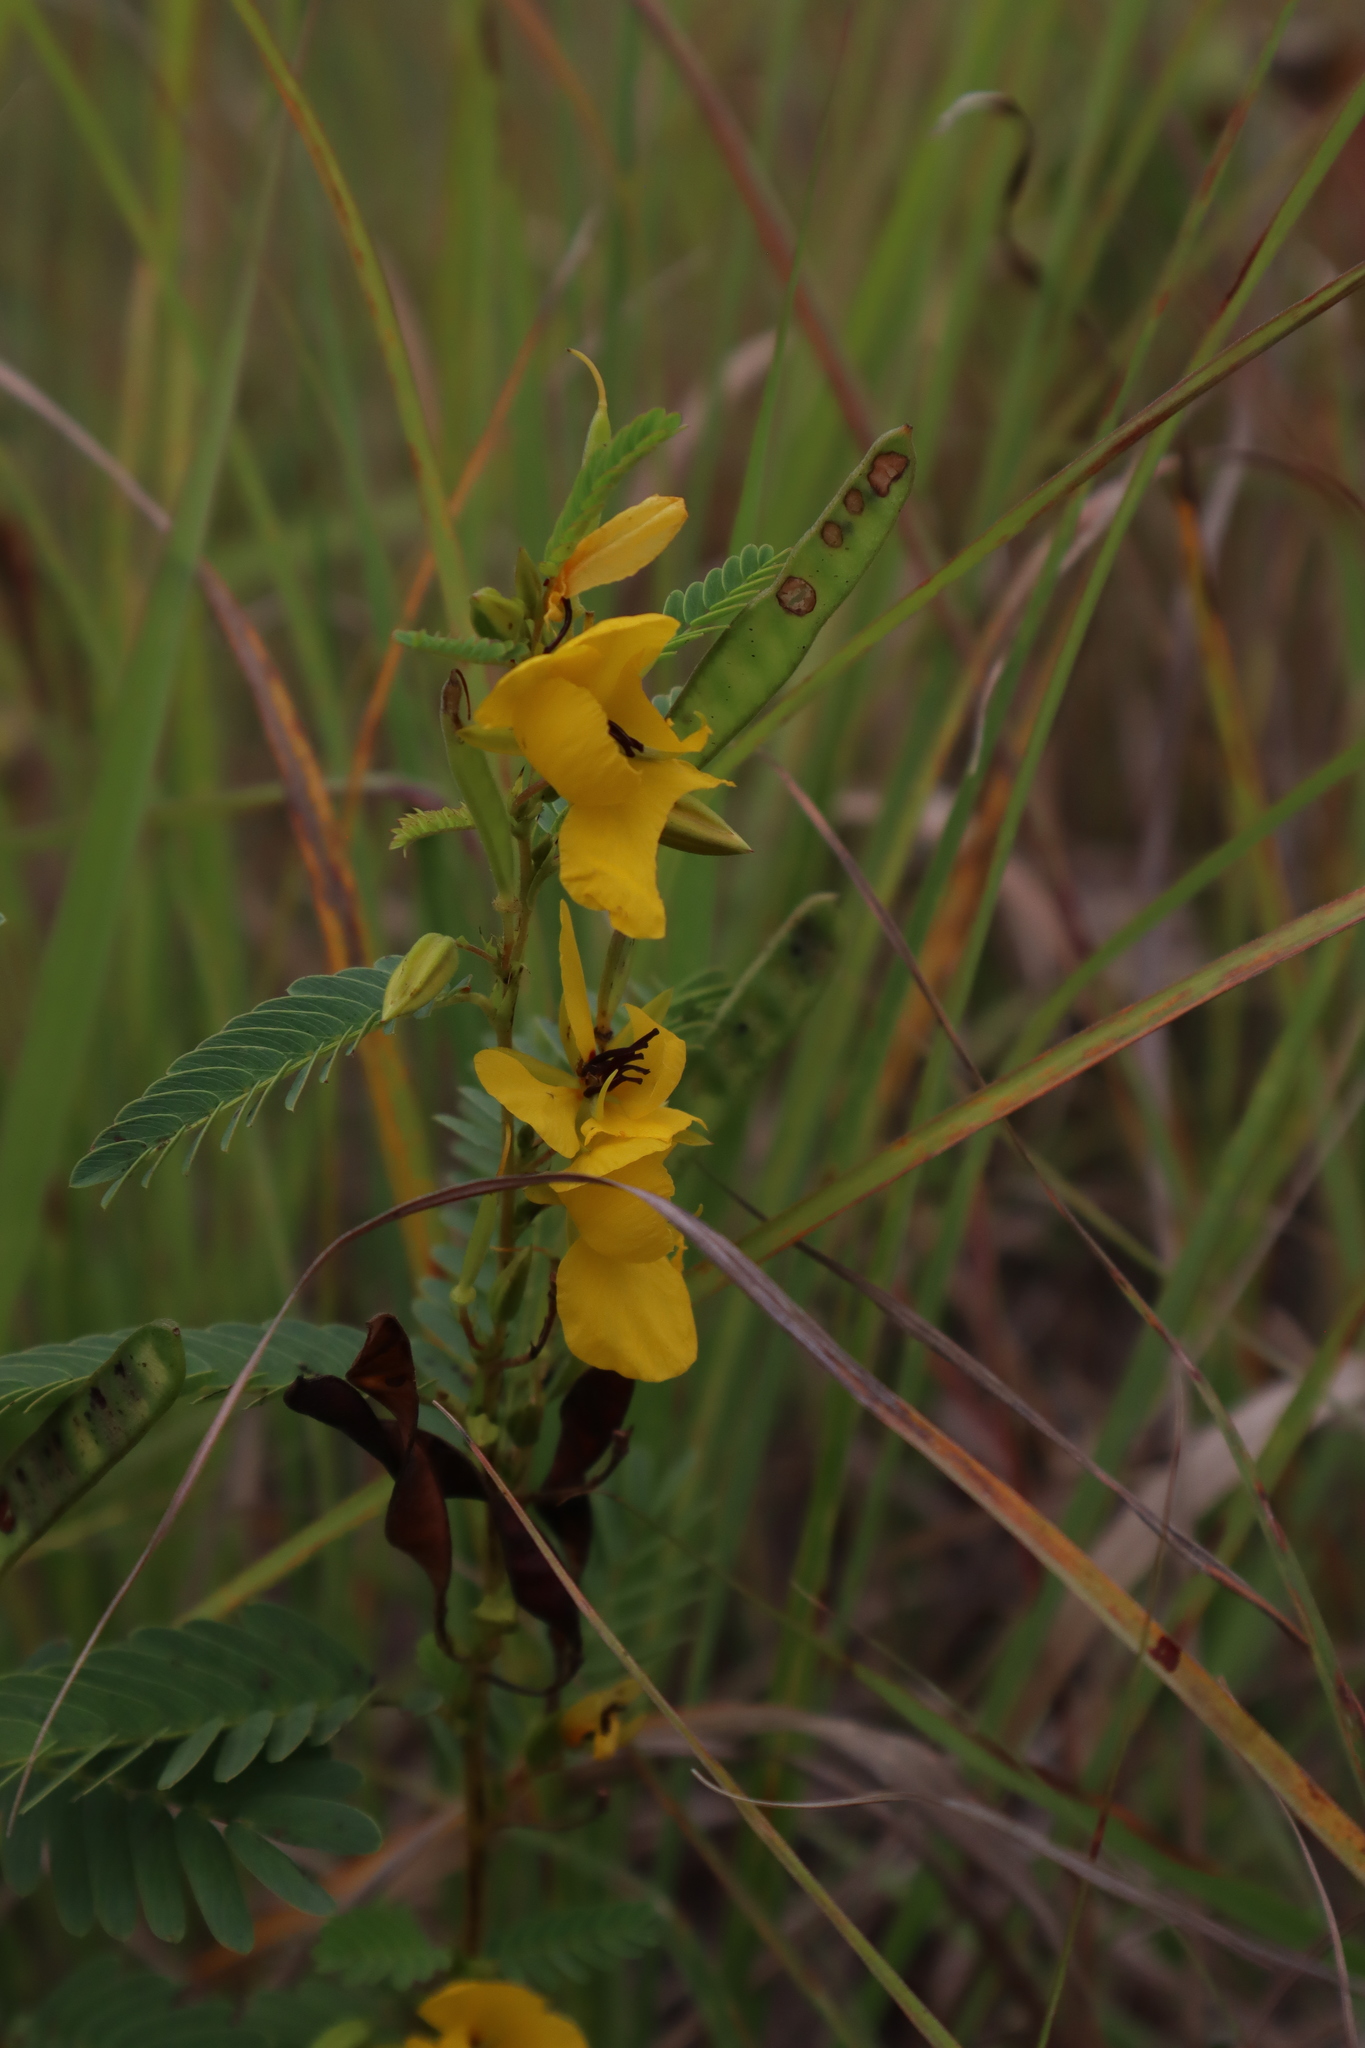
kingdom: Plantae
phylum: Tracheophyta
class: Magnoliopsida
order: Fabales
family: Fabaceae
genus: Chamaecrista
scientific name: Chamaecrista fasciculata
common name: Golden cassia
